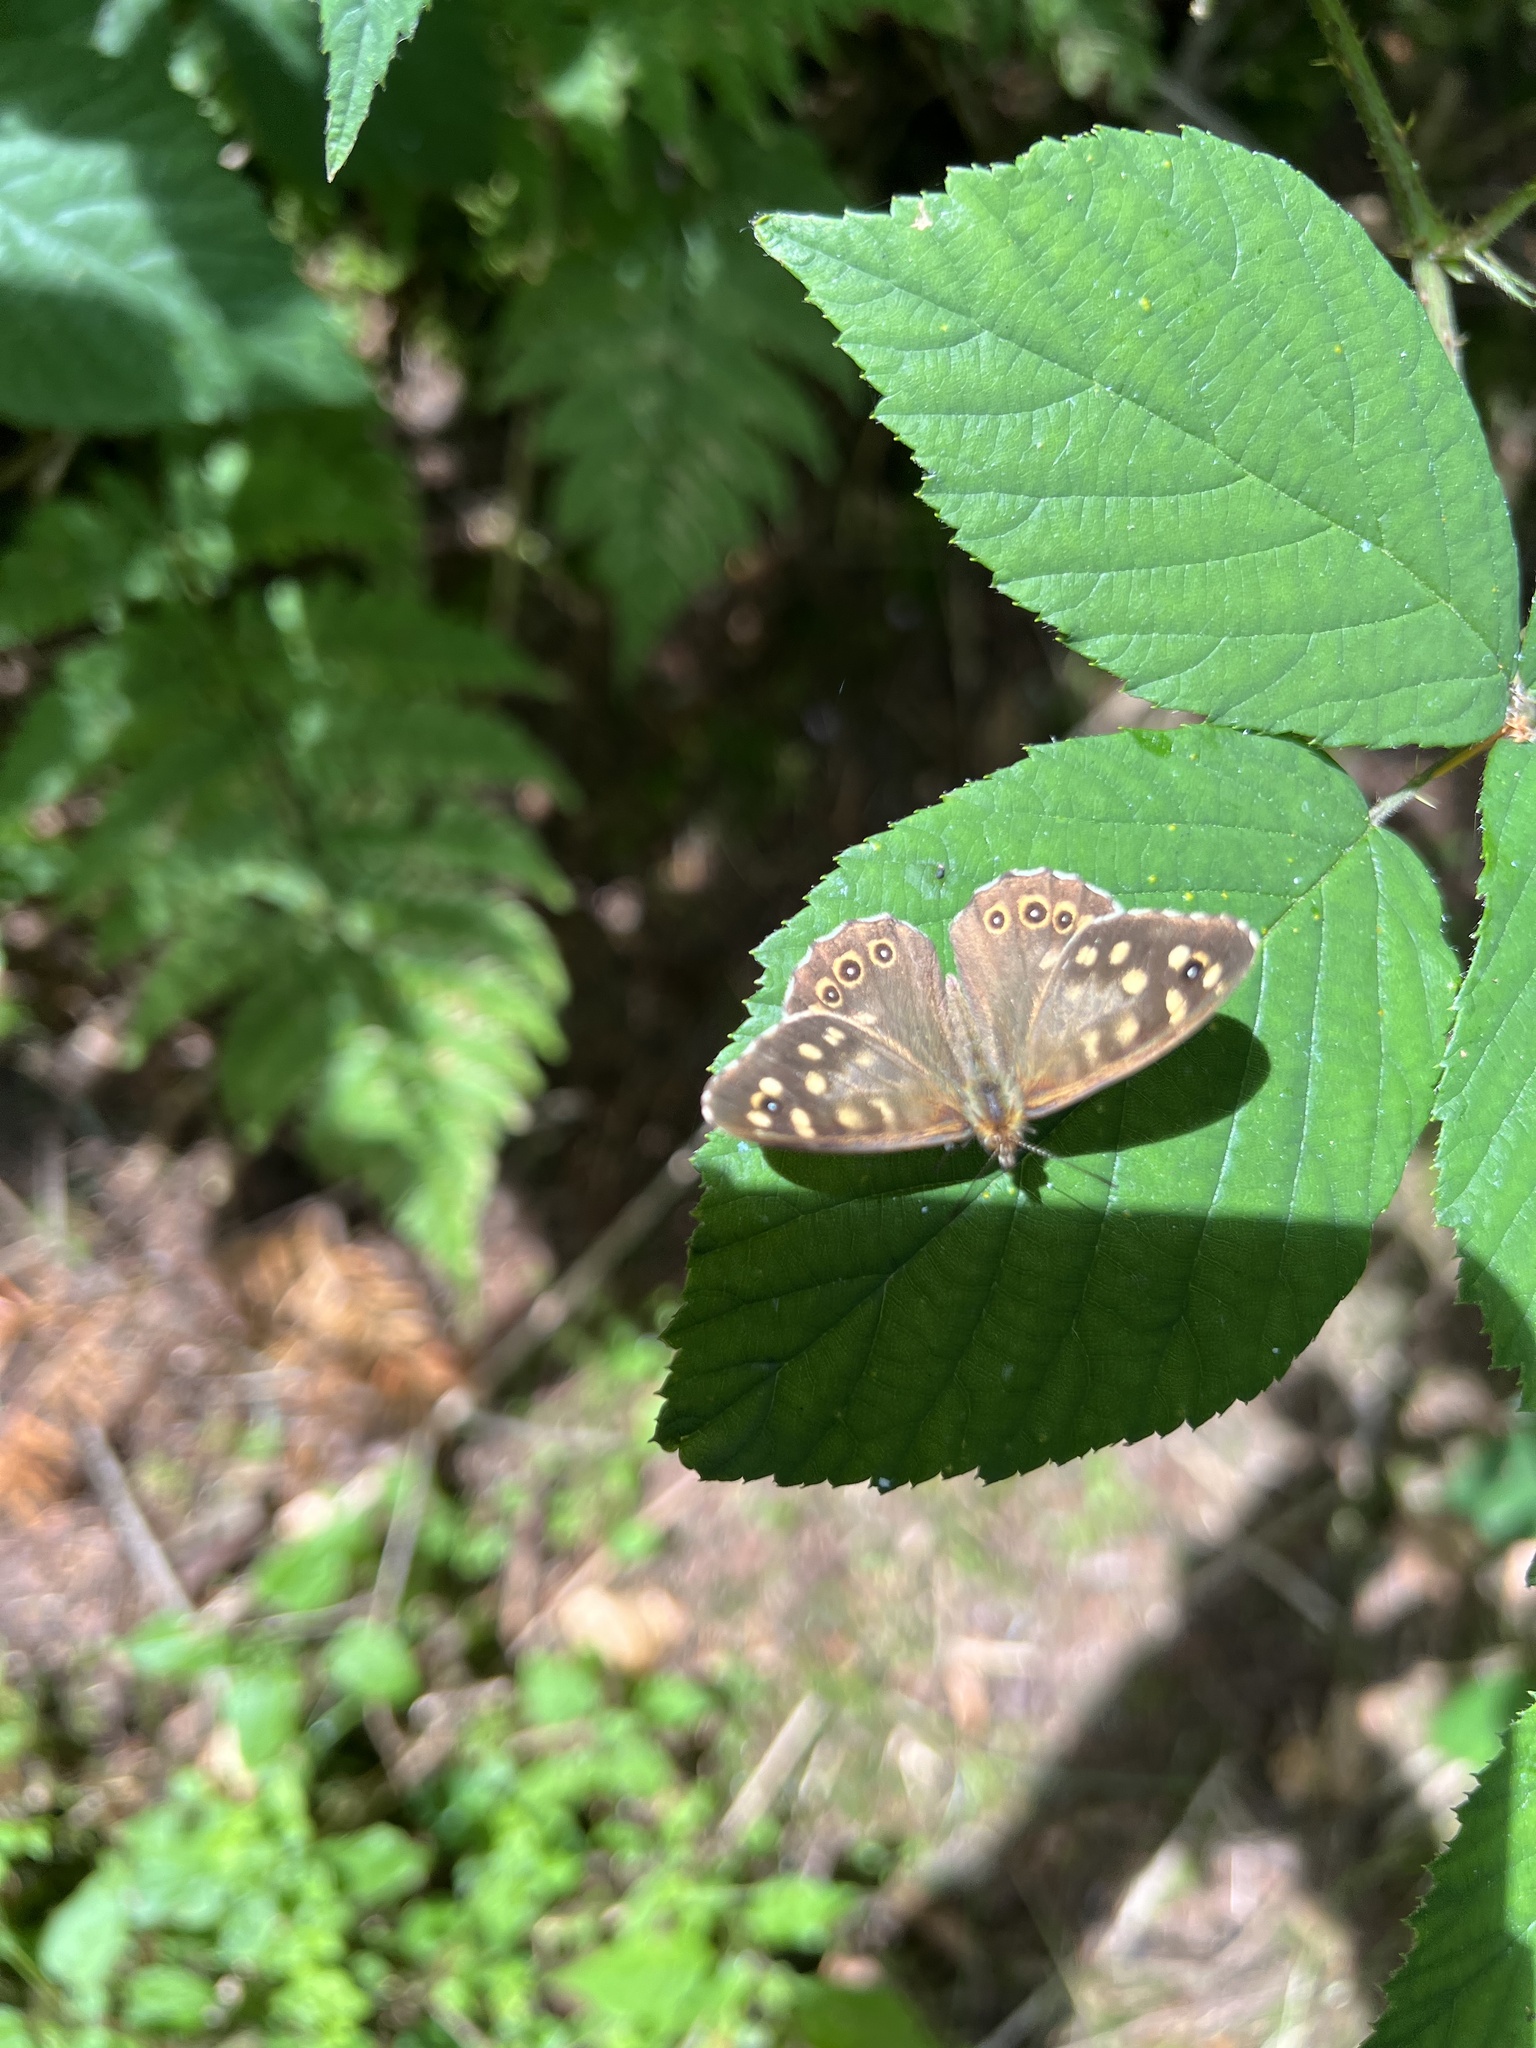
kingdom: Animalia
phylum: Arthropoda
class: Insecta
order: Lepidoptera
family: Nymphalidae
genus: Pararge
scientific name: Pararge aegeria
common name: Speckled wood
